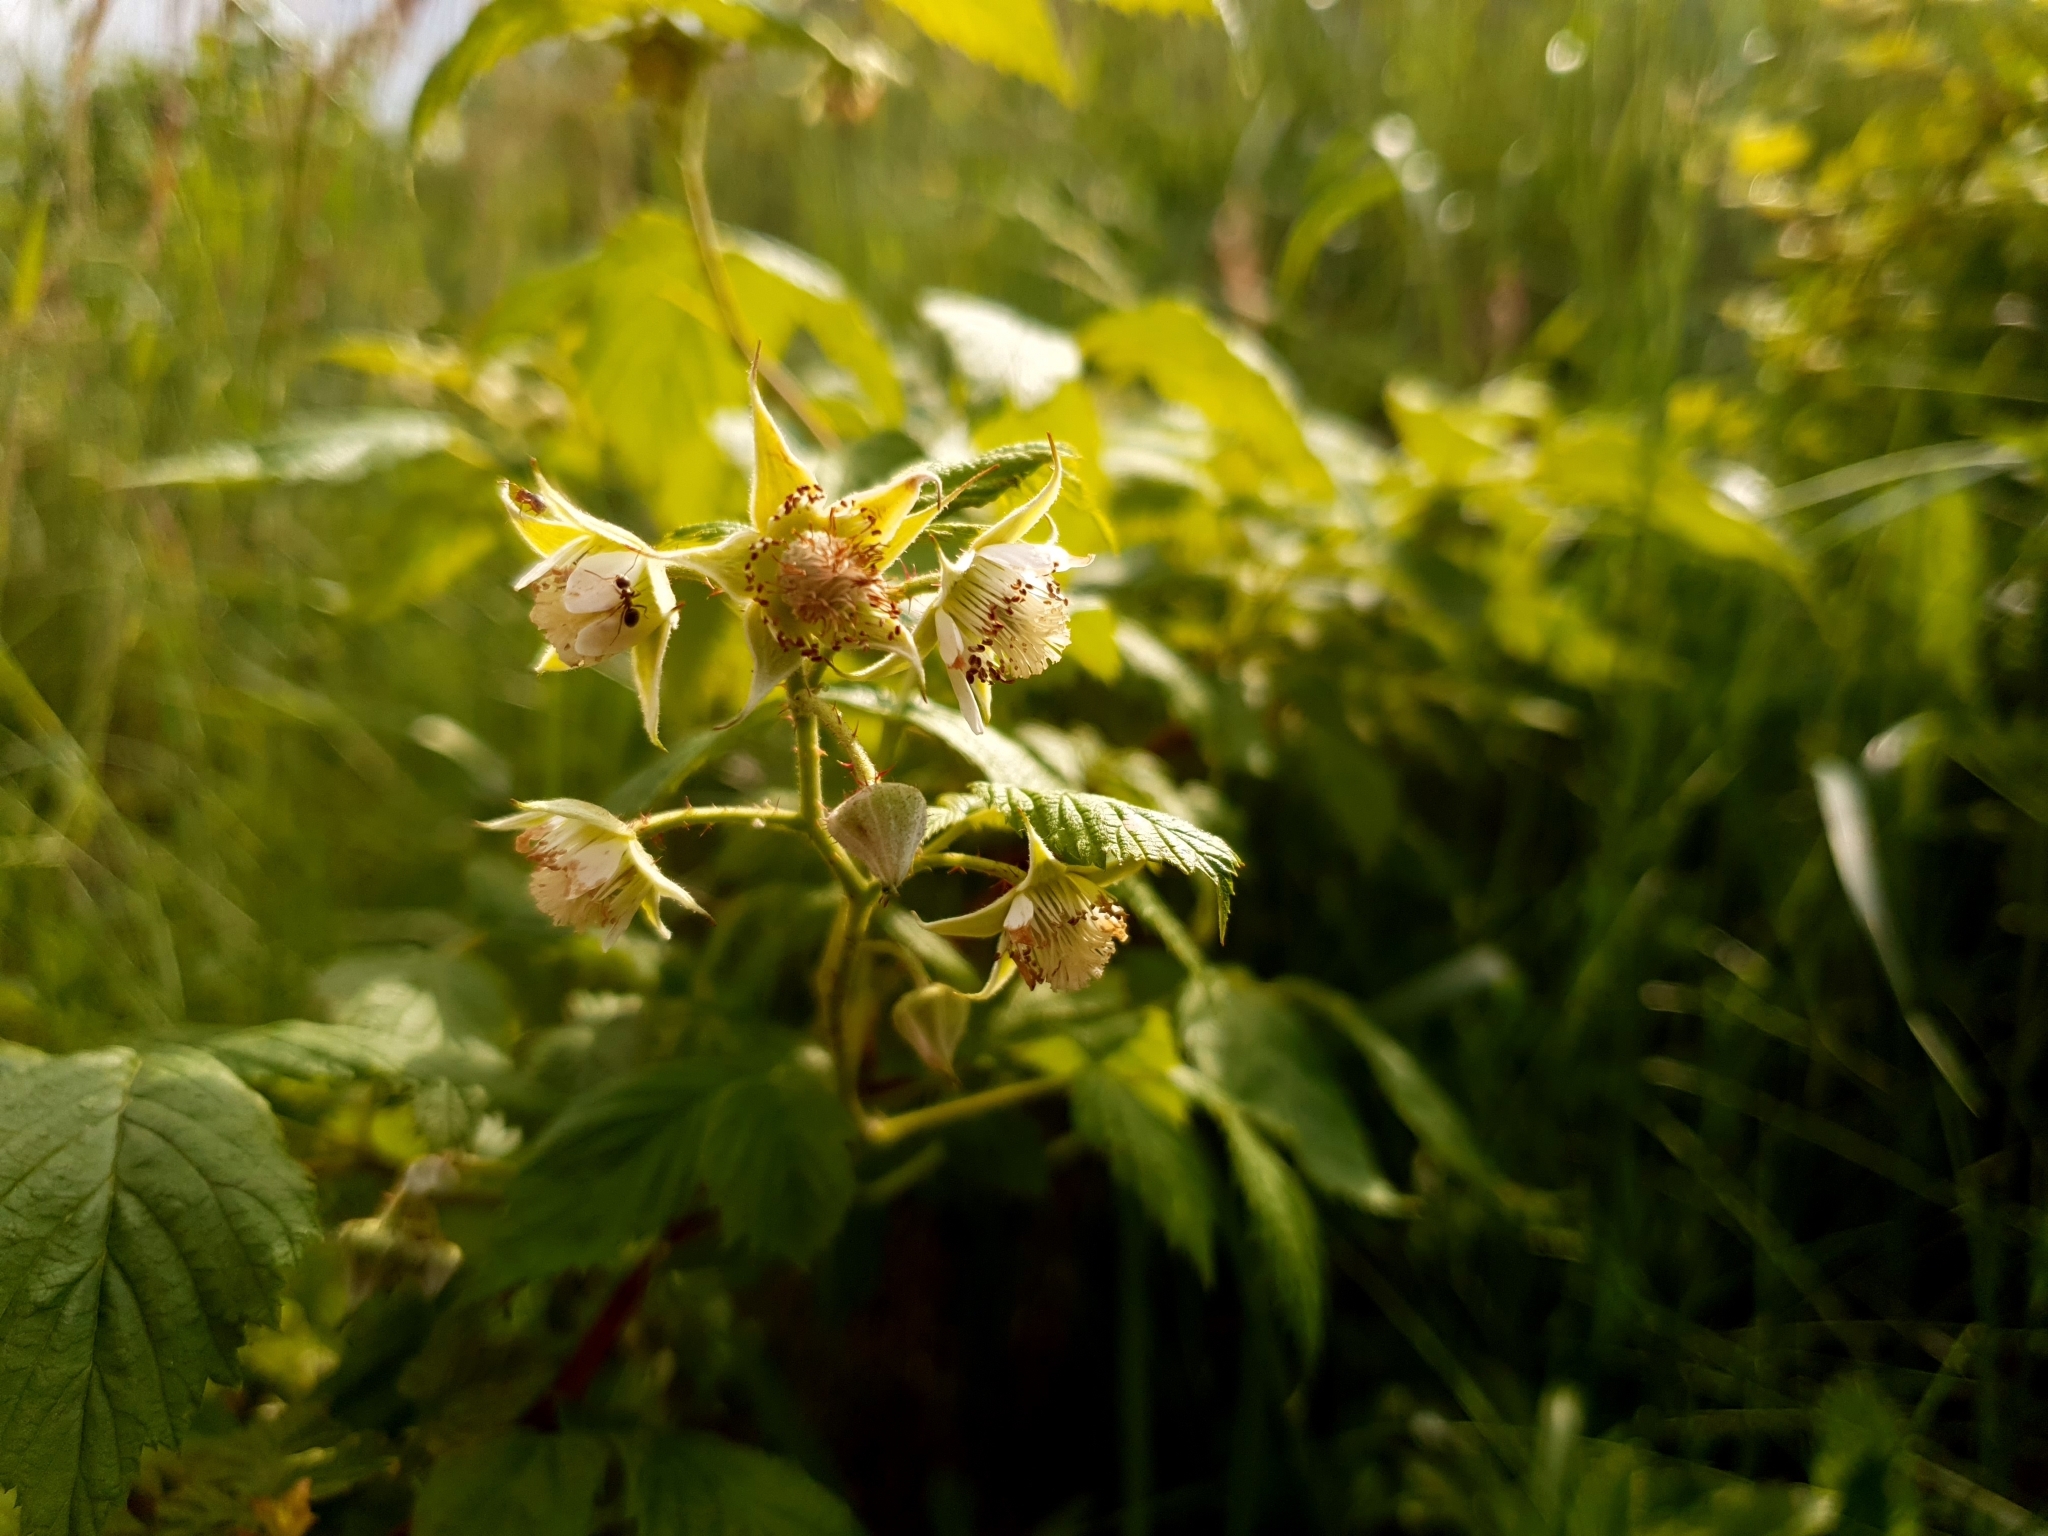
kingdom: Plantae
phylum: Tracheophyta
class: Magnoliopsida
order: Rosales
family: Rosaceae
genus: Rubus
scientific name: Rubus idaeus
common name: Raspberry
